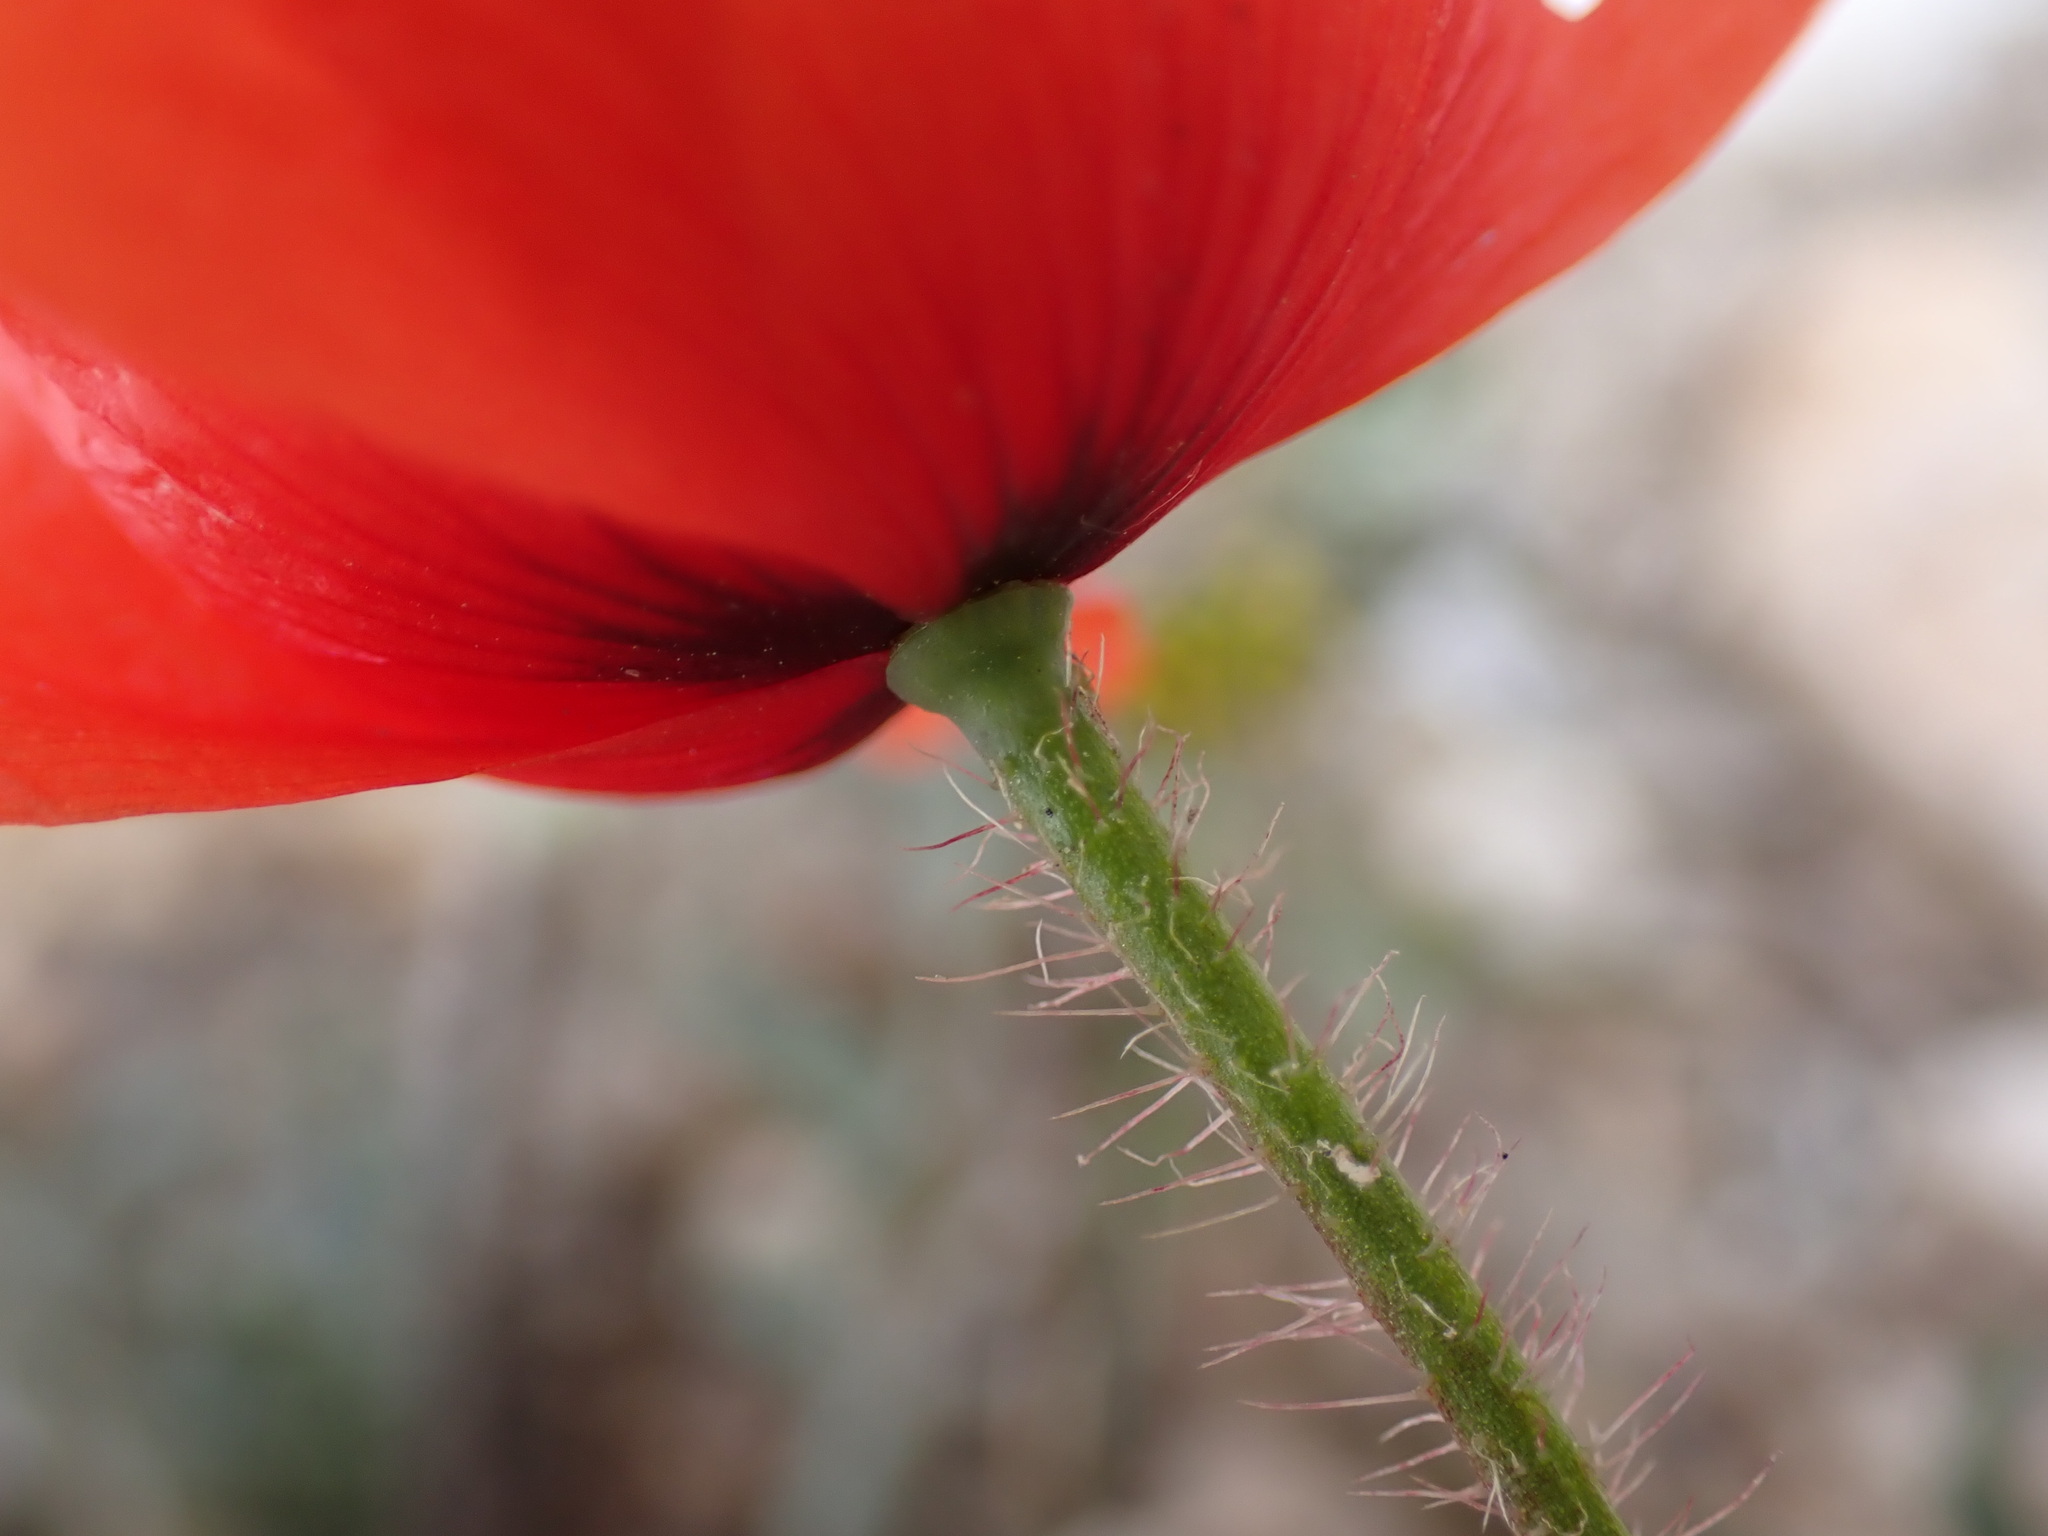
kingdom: Plantae
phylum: Tracheophyta
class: Magnoliopsida
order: Ranunculales
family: Papaveraceae
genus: Papaver
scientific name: Papaver rhoeas
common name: Corn poppy
